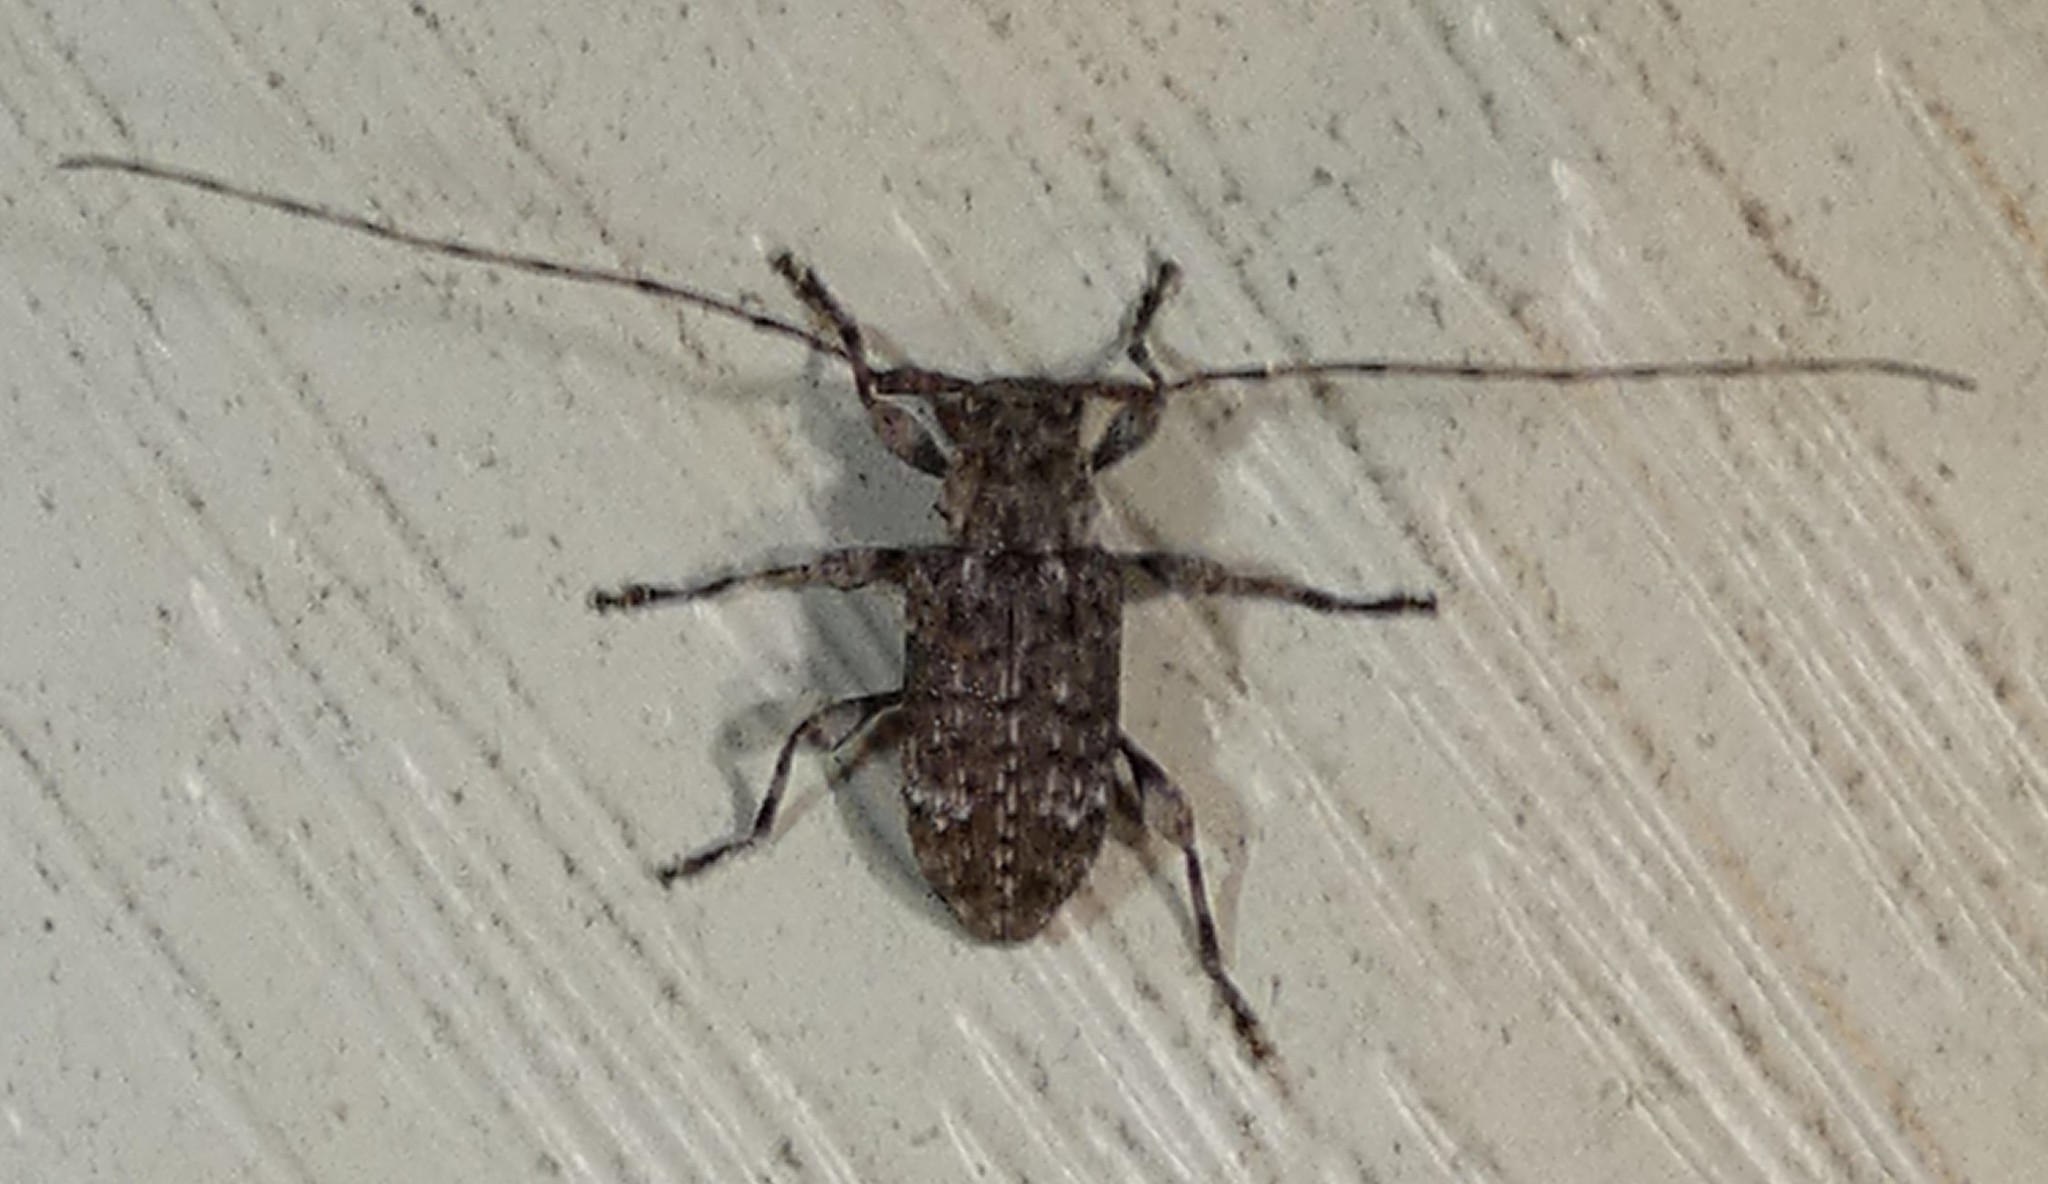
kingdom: Animalia
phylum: Arthropoda
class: Insecta
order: Coleoptera
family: Cerambycidae
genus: Astylopsis
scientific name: Astylopsis sexguttata
